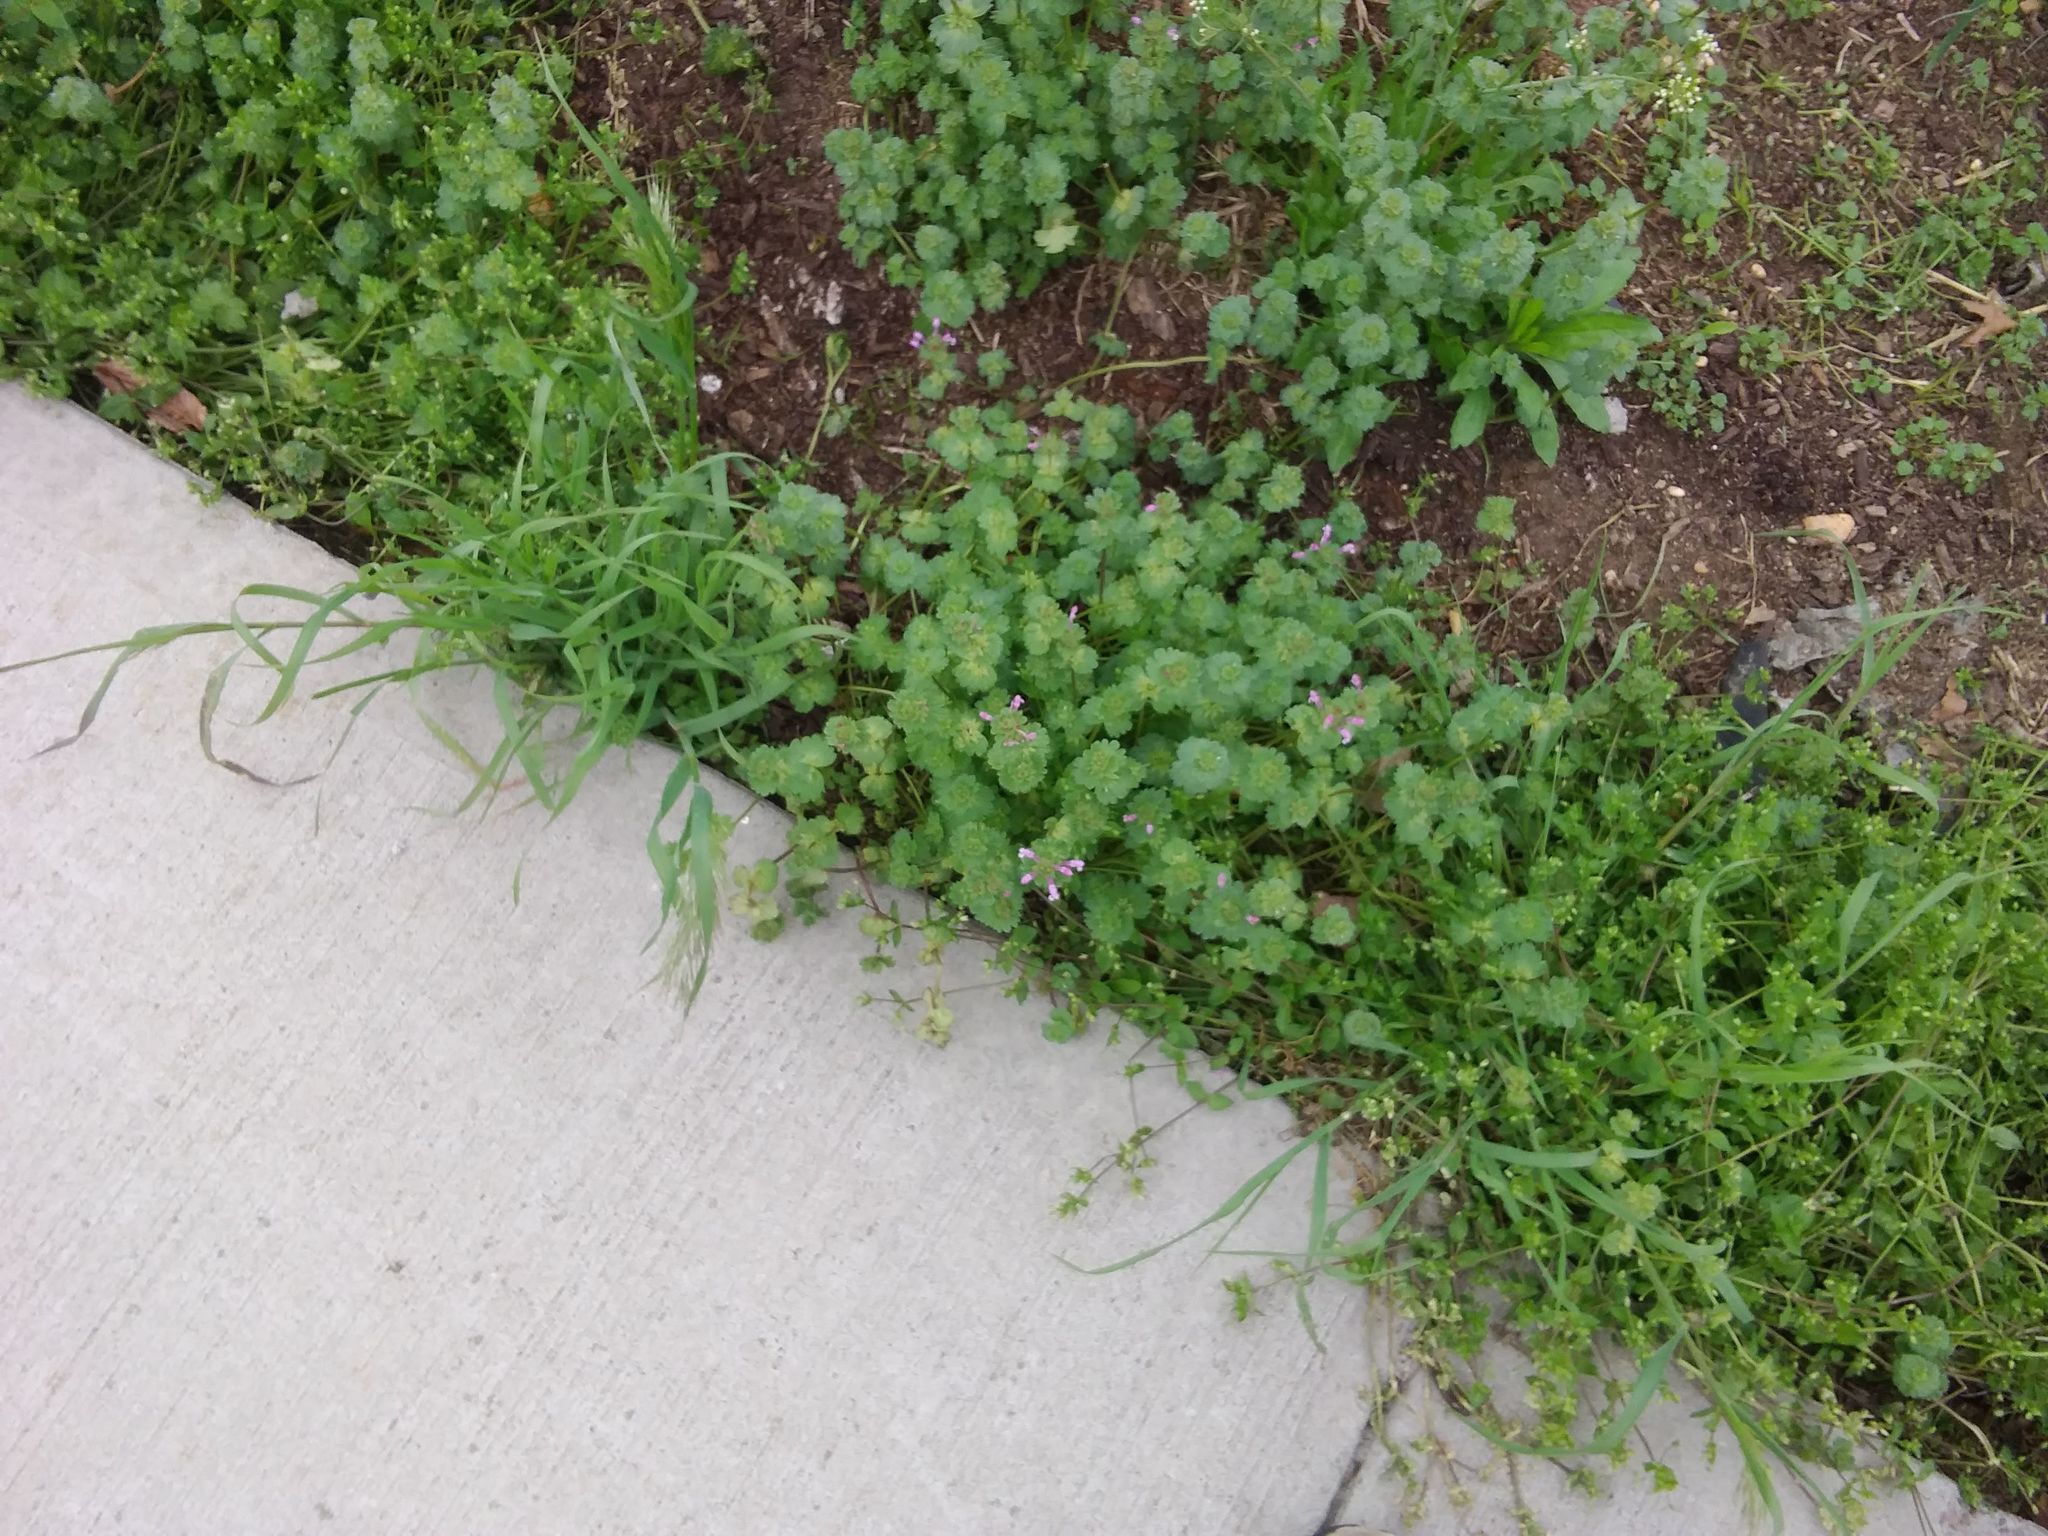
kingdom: Plantae
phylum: Tracheophyta
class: Magnoliopsida
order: Lamiales
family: Lamiaceae
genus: Lamium
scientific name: Lamium amplexicaule
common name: Henbit dead-nettle
